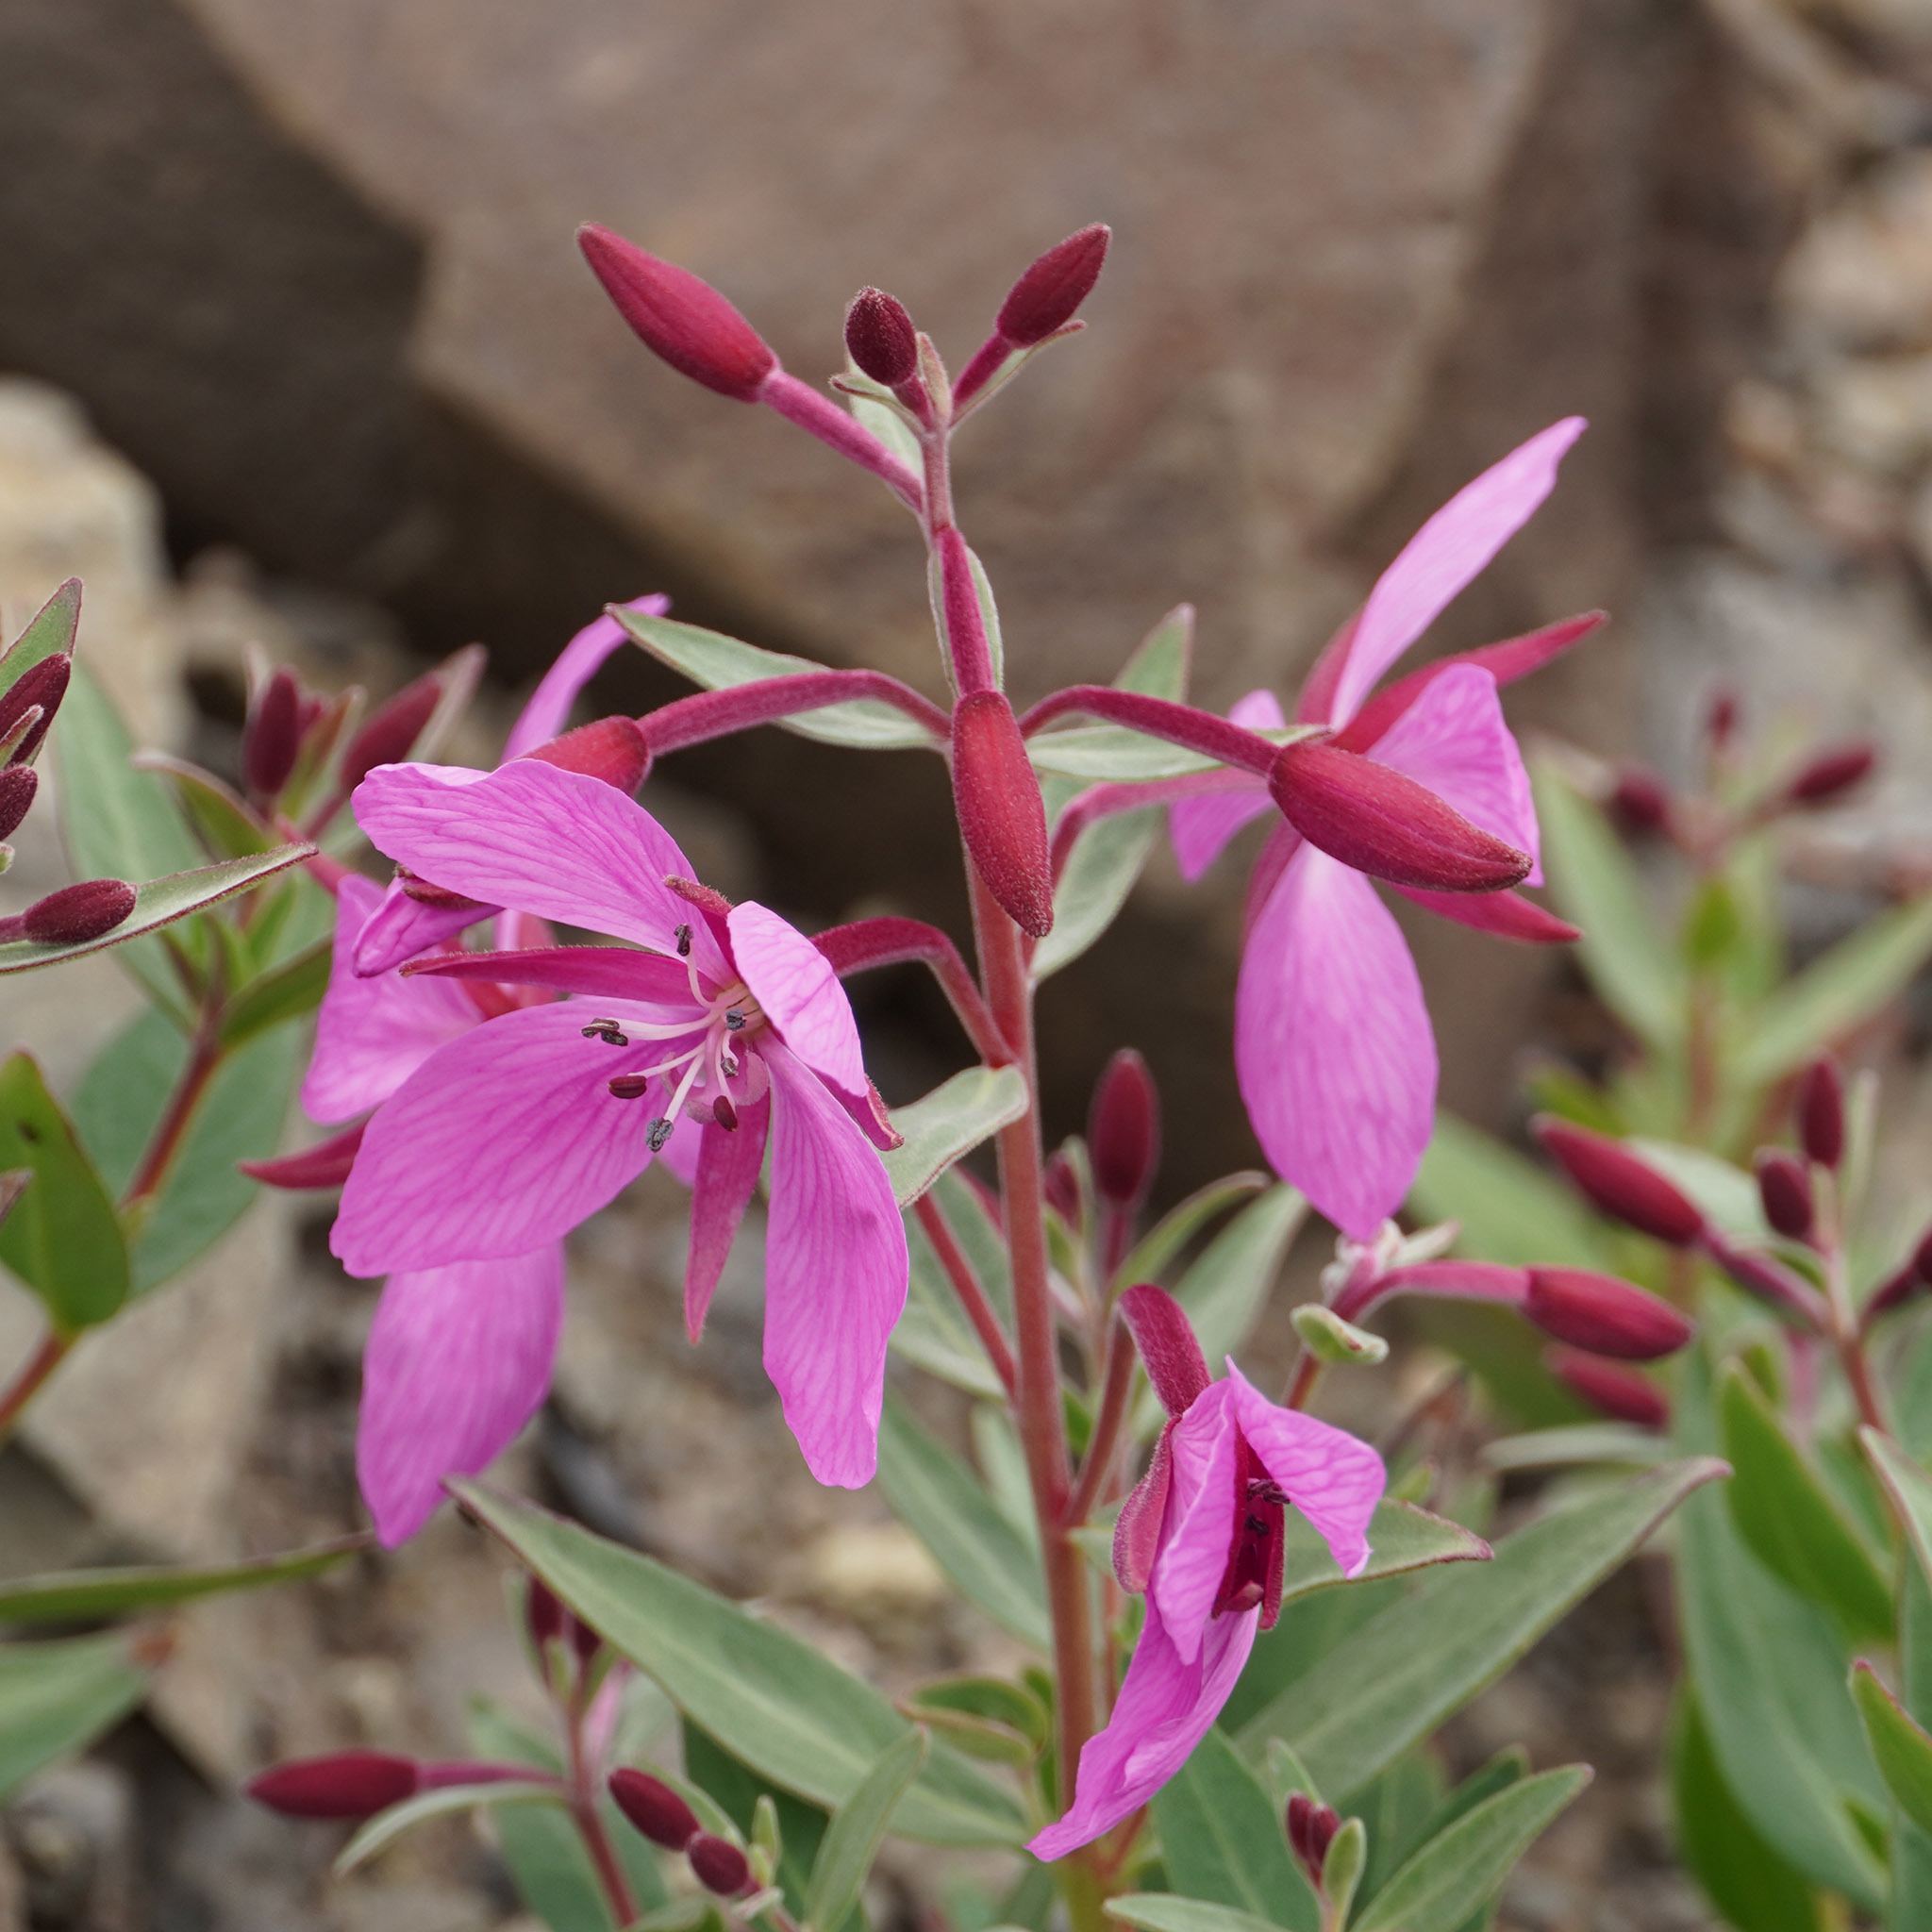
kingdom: Plantae
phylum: Tracheophyta
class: Magnoliopsida
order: Myrtales
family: Onagraceae
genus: Chamaenerion
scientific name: Chamaenerion latifolium
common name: Dwarf fireweed
